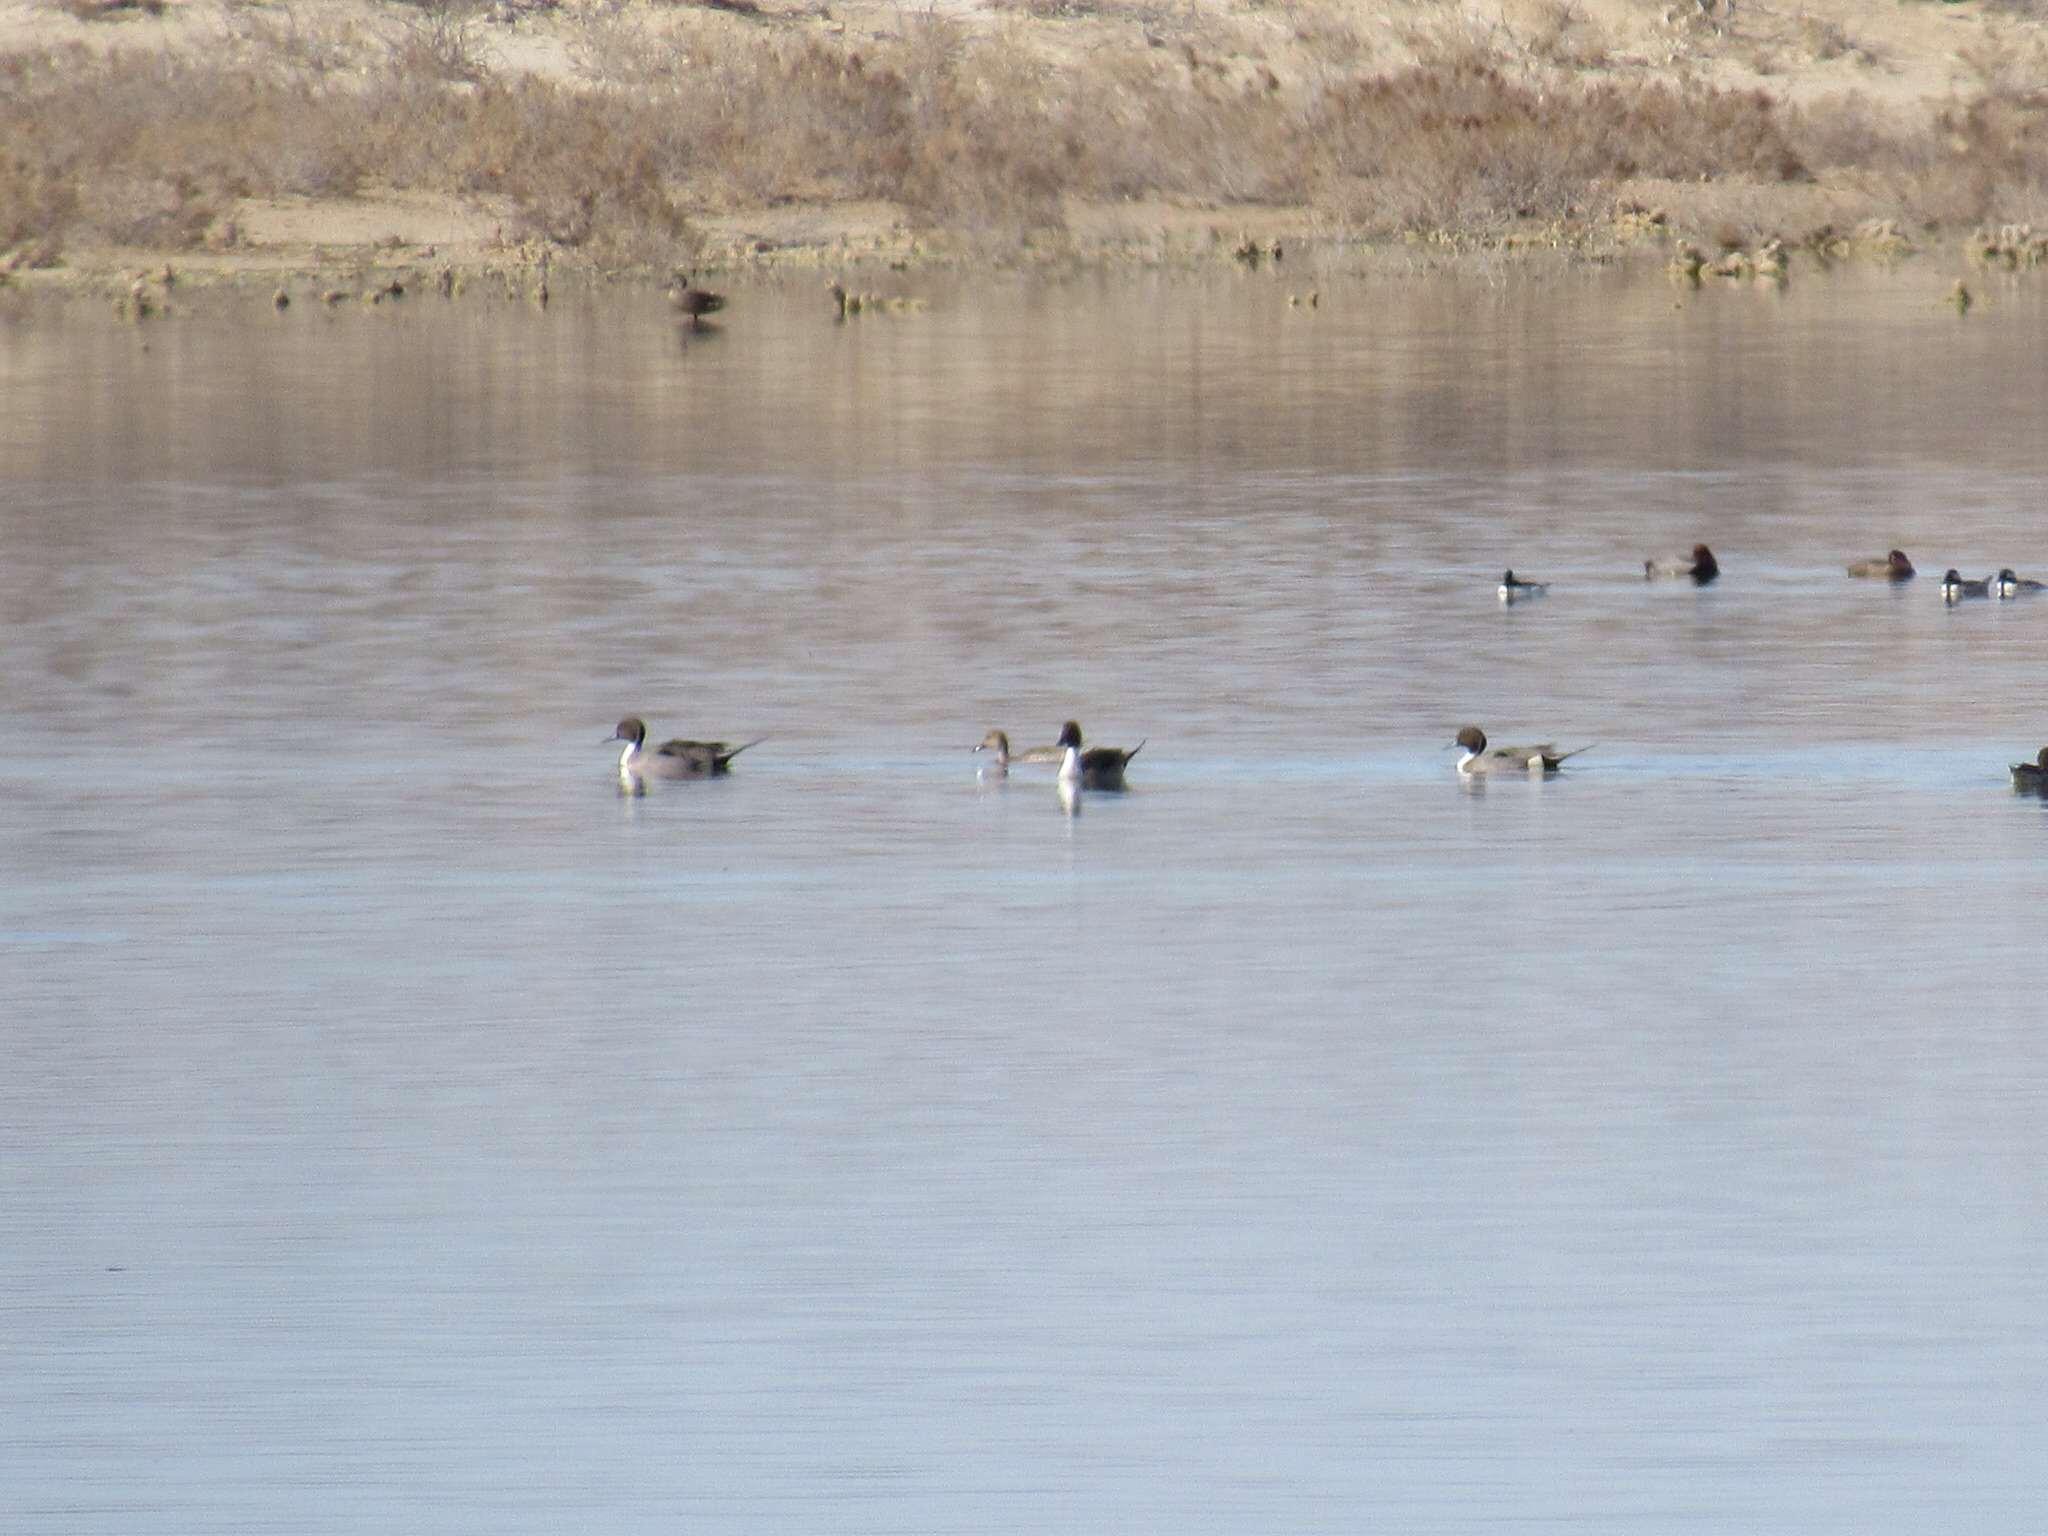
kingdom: Animalia
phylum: Chordata
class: Aves
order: Anseriformes
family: Anatidae
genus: Anas
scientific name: Anas acuta
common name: Northern pintail
